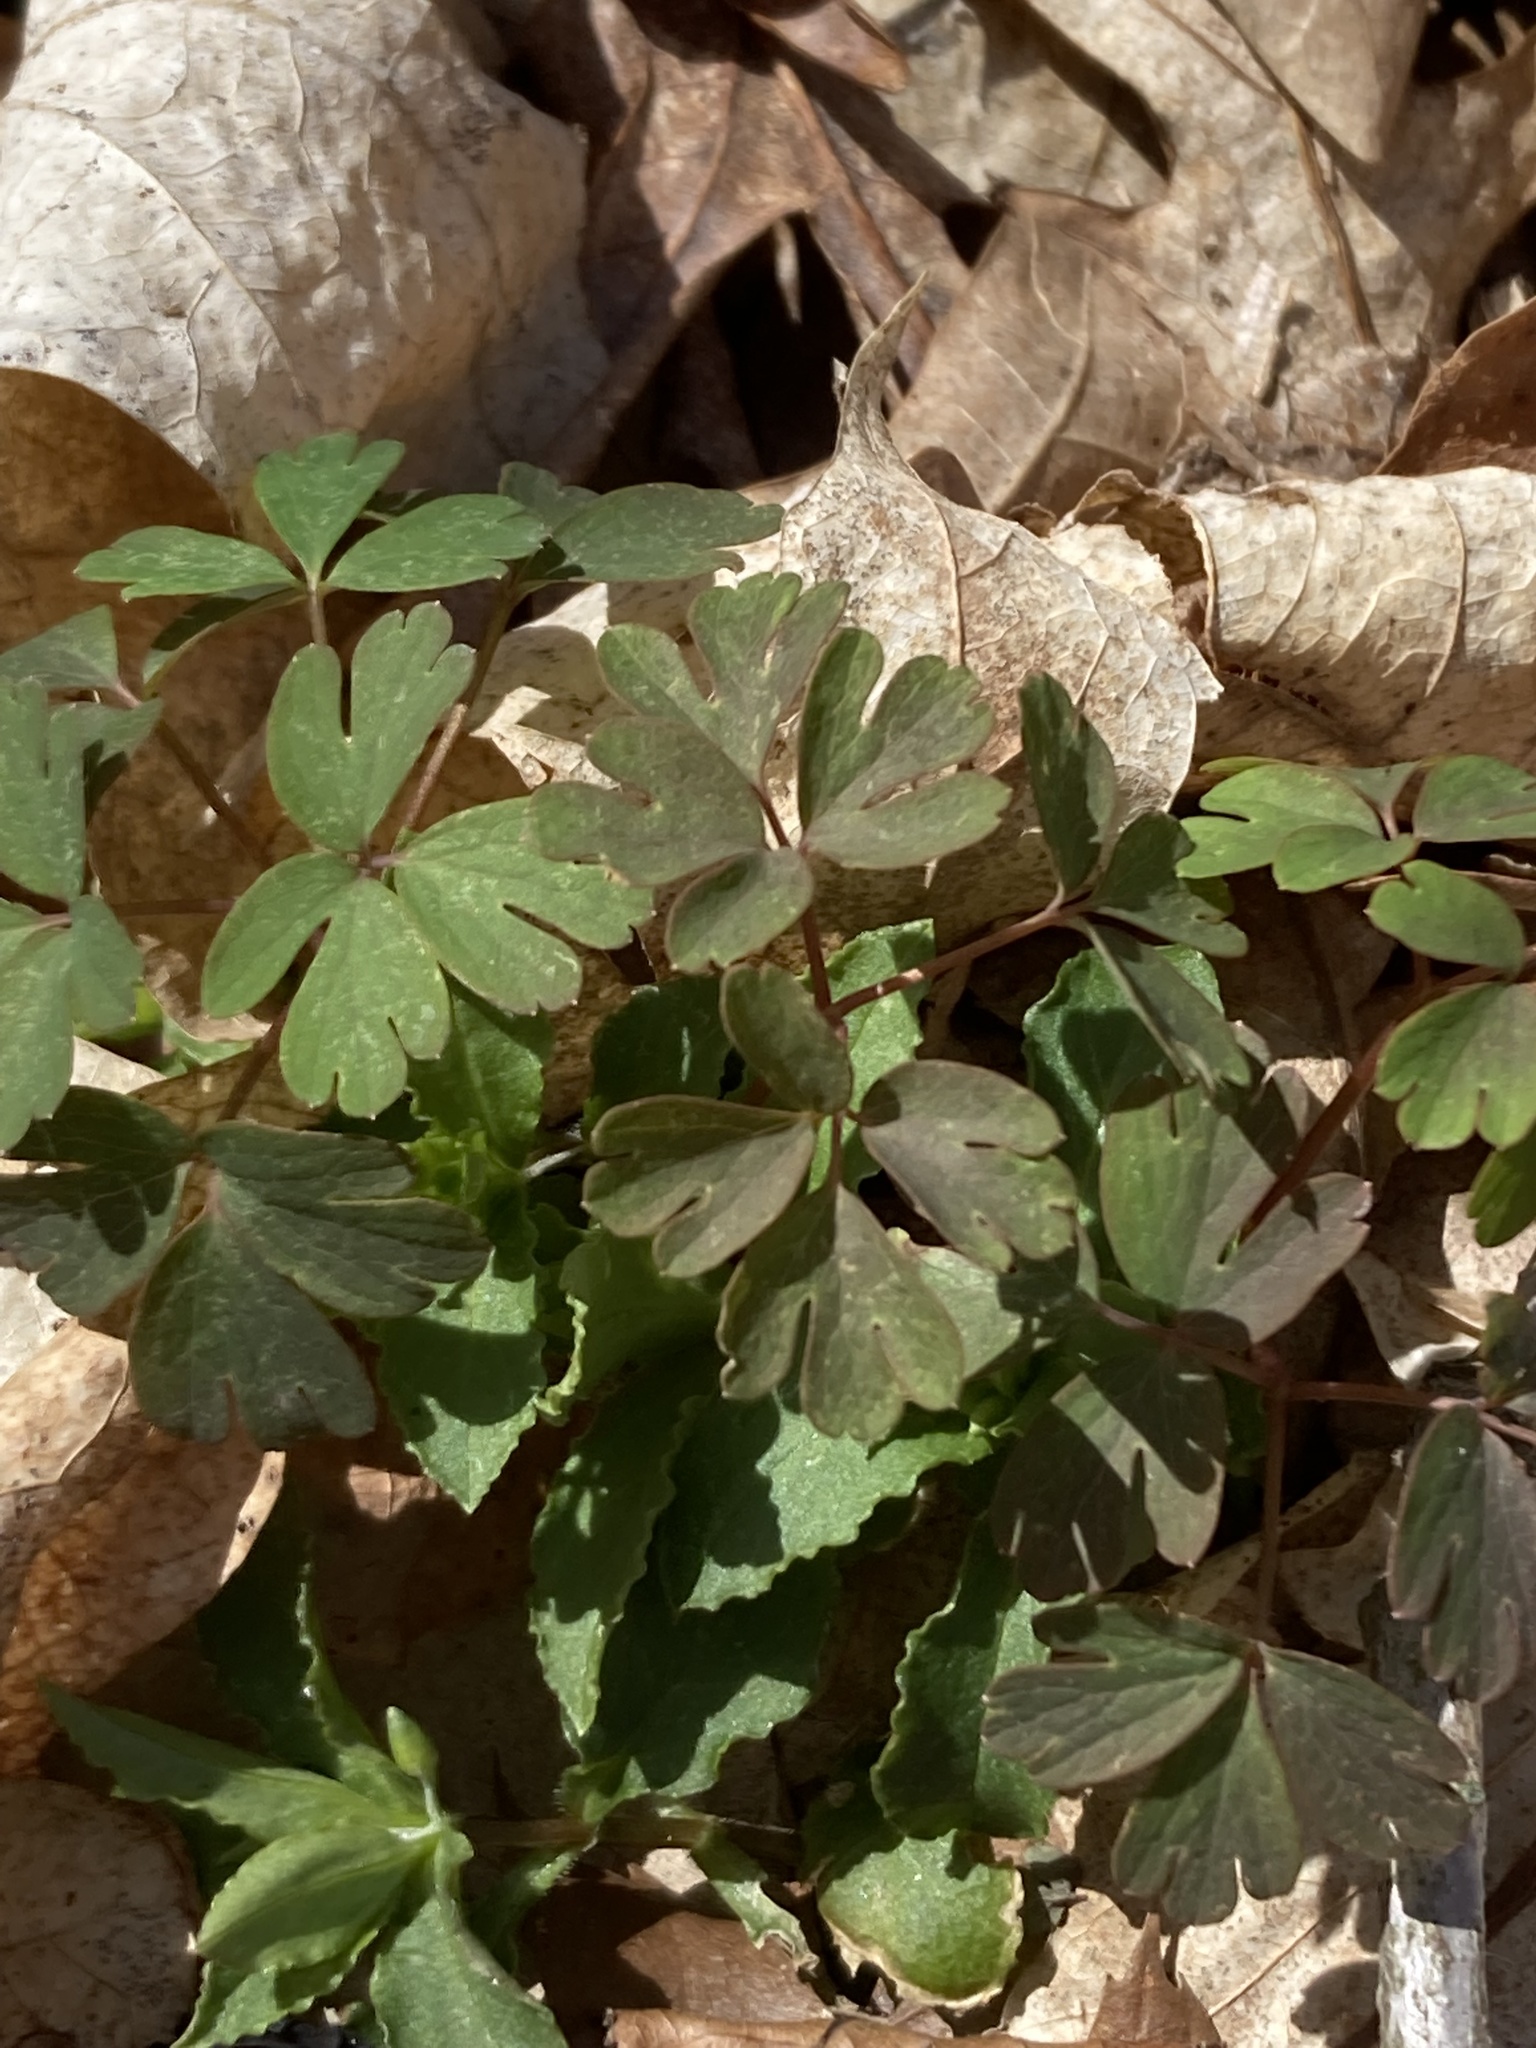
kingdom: Plantae
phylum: Tracheophyta
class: Magnoliopsida
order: Ranunculales
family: Ranunculaceae
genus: Enemion
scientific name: Enemion biternatum
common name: Eastern false rue-anemone
